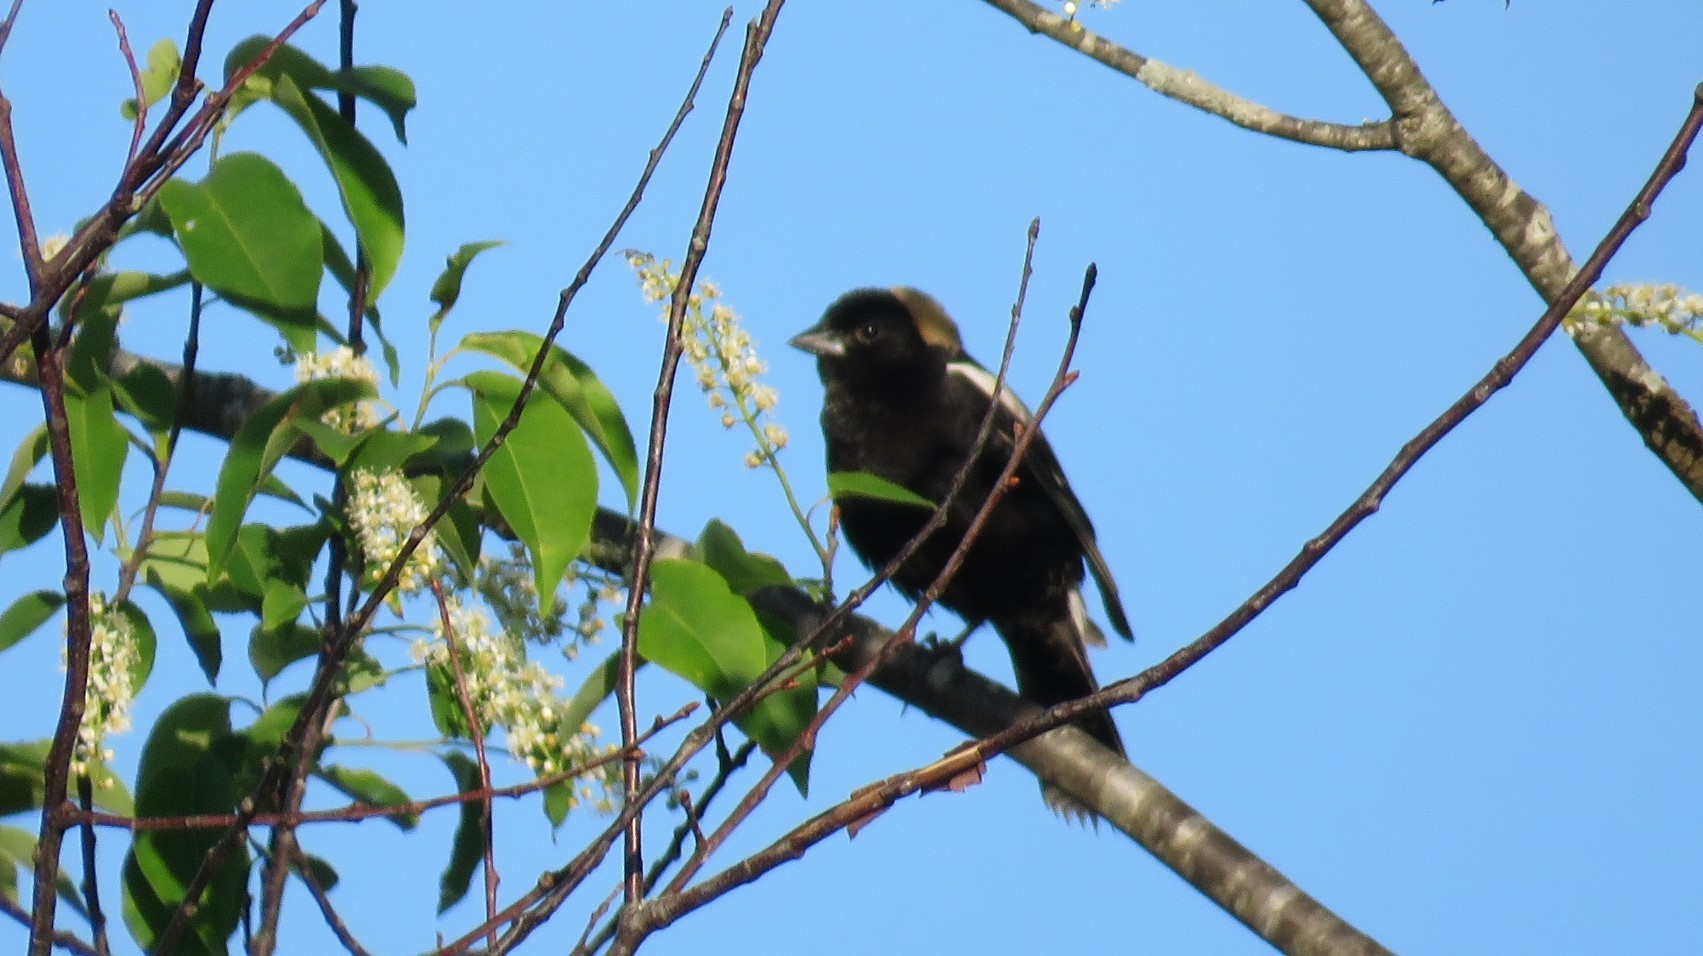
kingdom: Animalia
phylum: Chordata
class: Aves
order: Passeriformes
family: Icteridae
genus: Dolichonyx
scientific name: Dolichonyx oryzivorus
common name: Bobolink
